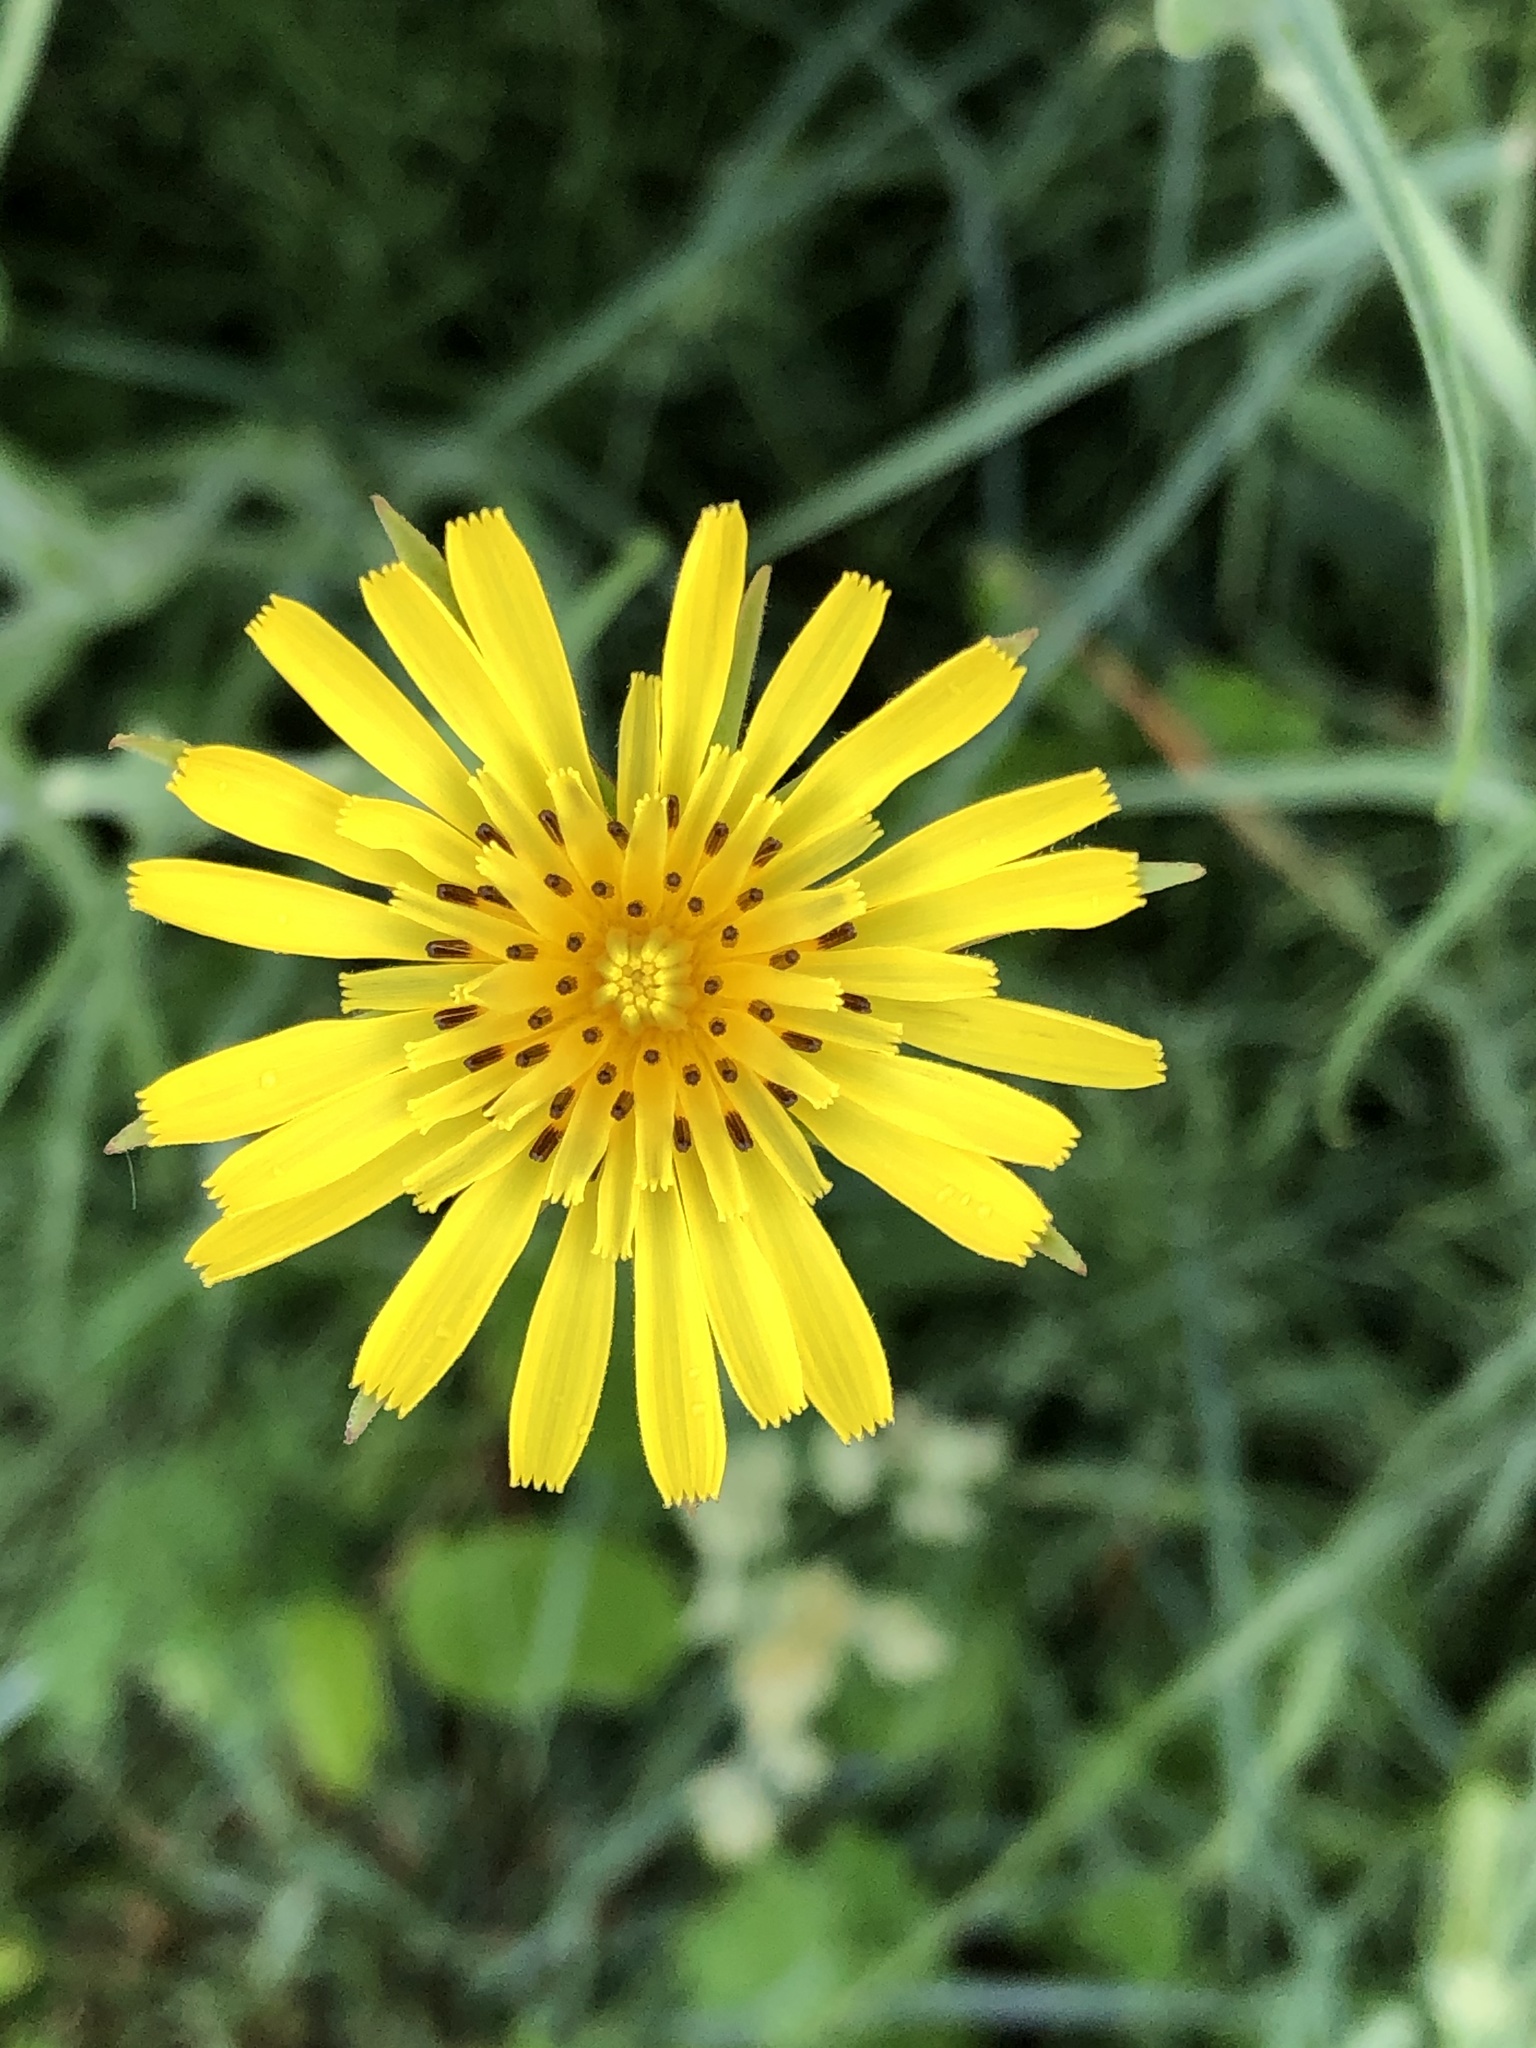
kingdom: Plantae
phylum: Tracheophyta
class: Magnoliopsida
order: Asterales
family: Asteraceae
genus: Tragopogon
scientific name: Tragopogon pratensis
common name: Goat's-beard
